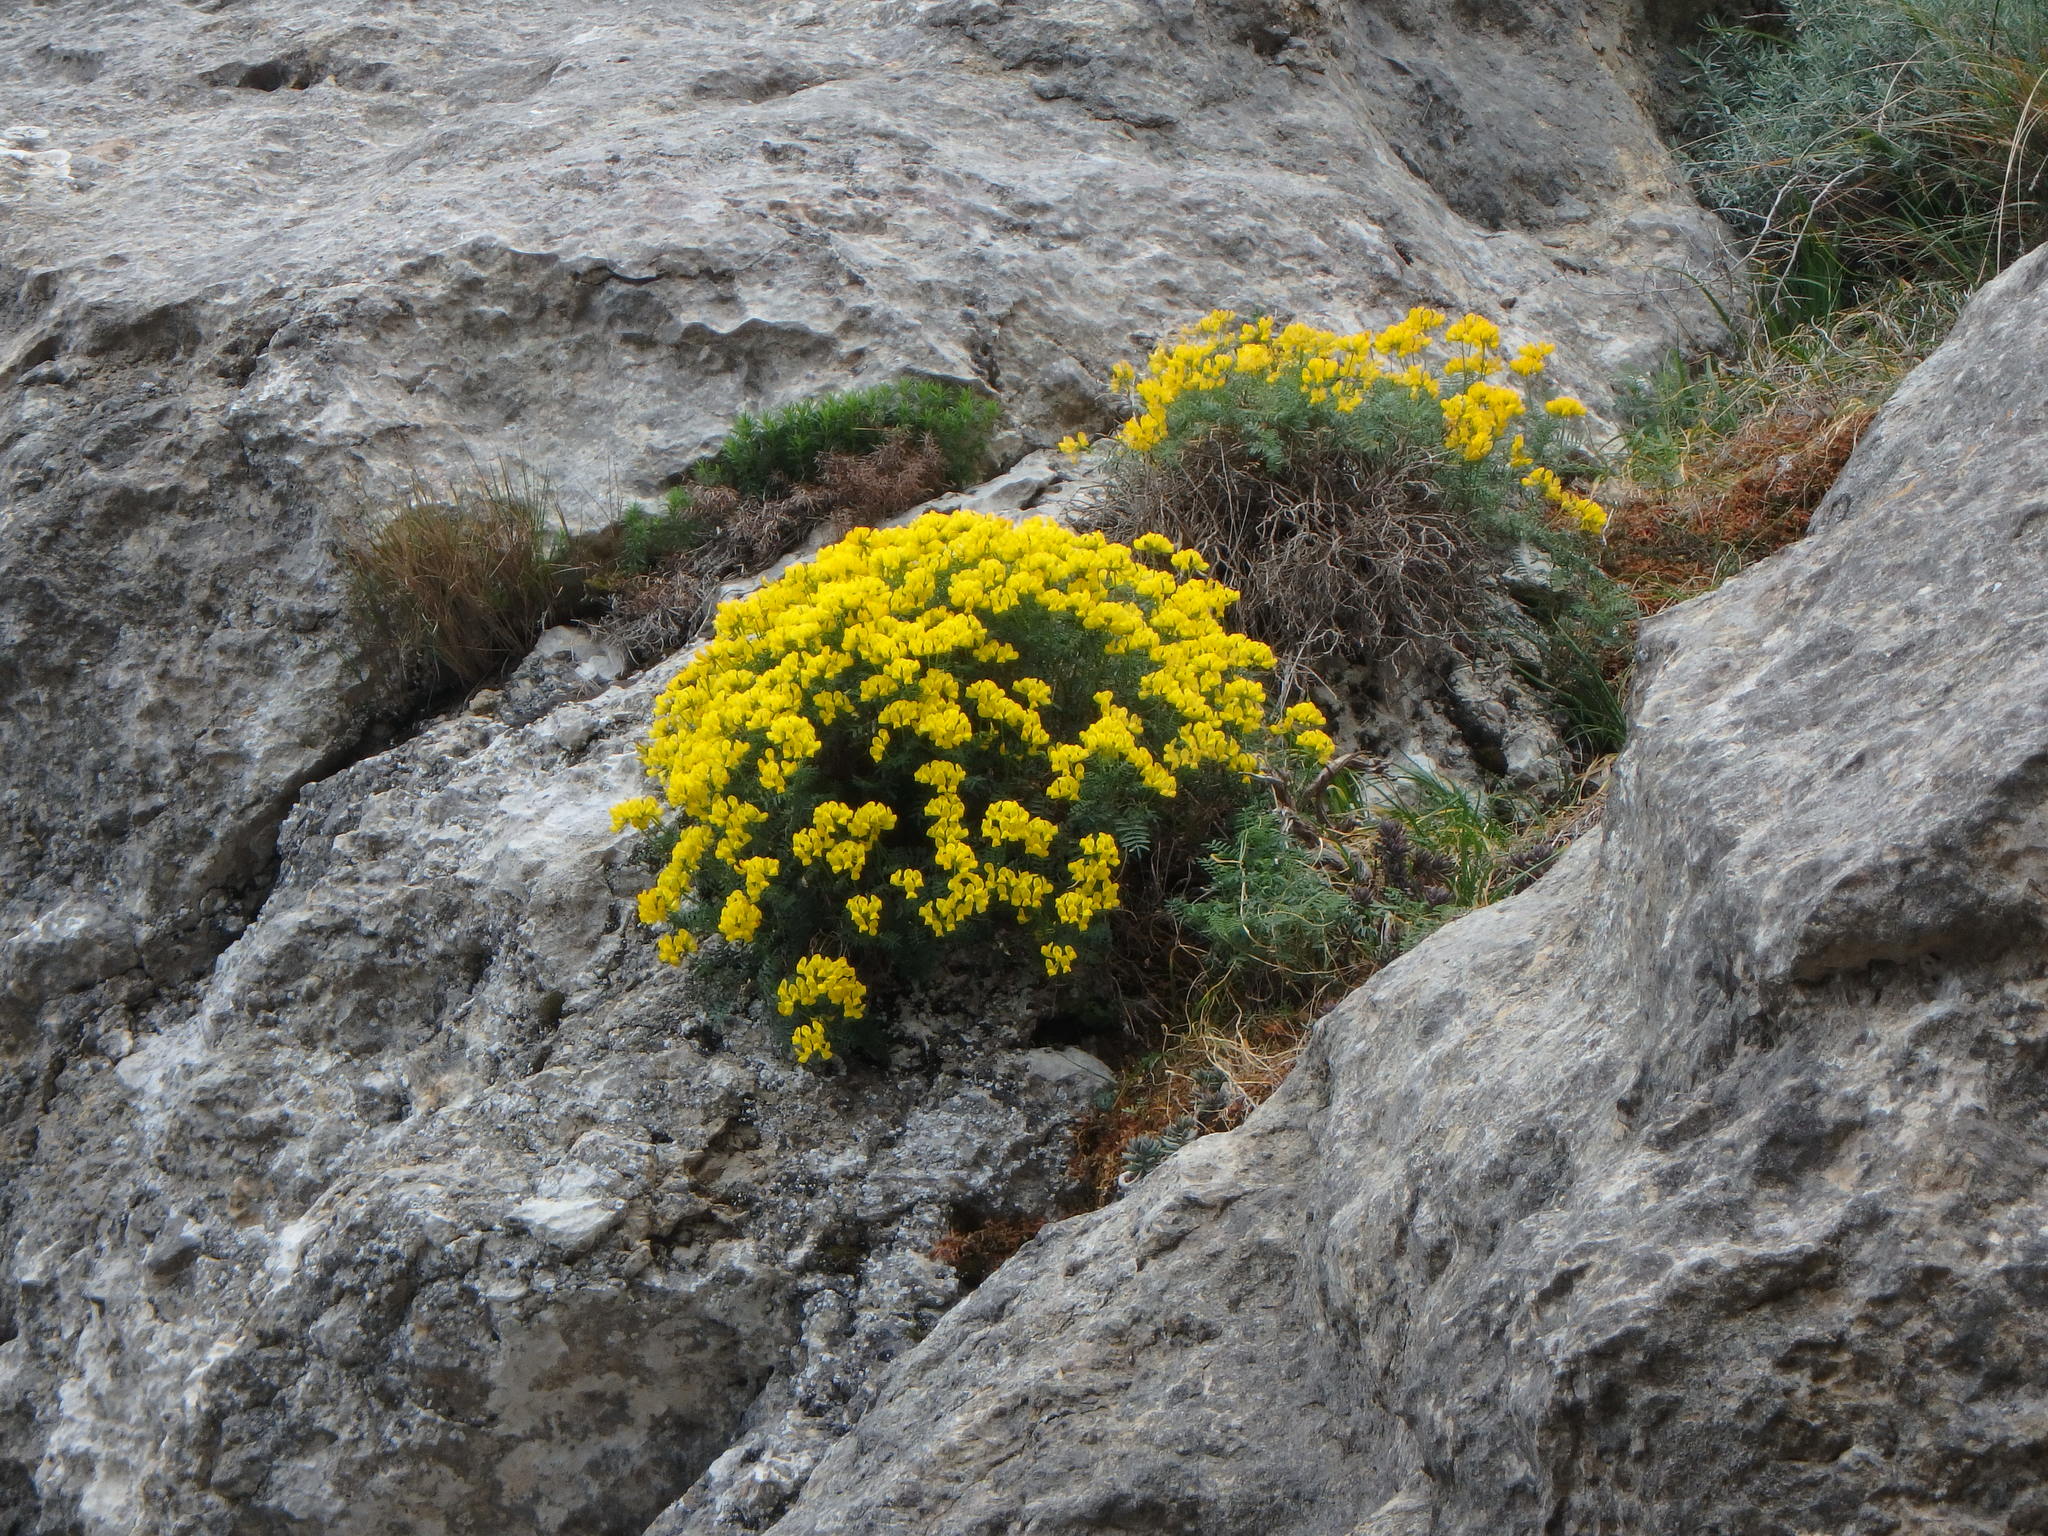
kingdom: Plantae
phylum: Tracheophyta
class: Magnoliopsida
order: Fabales
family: Fabaceae
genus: Hippocrepis
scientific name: Hippocrepis balearica
